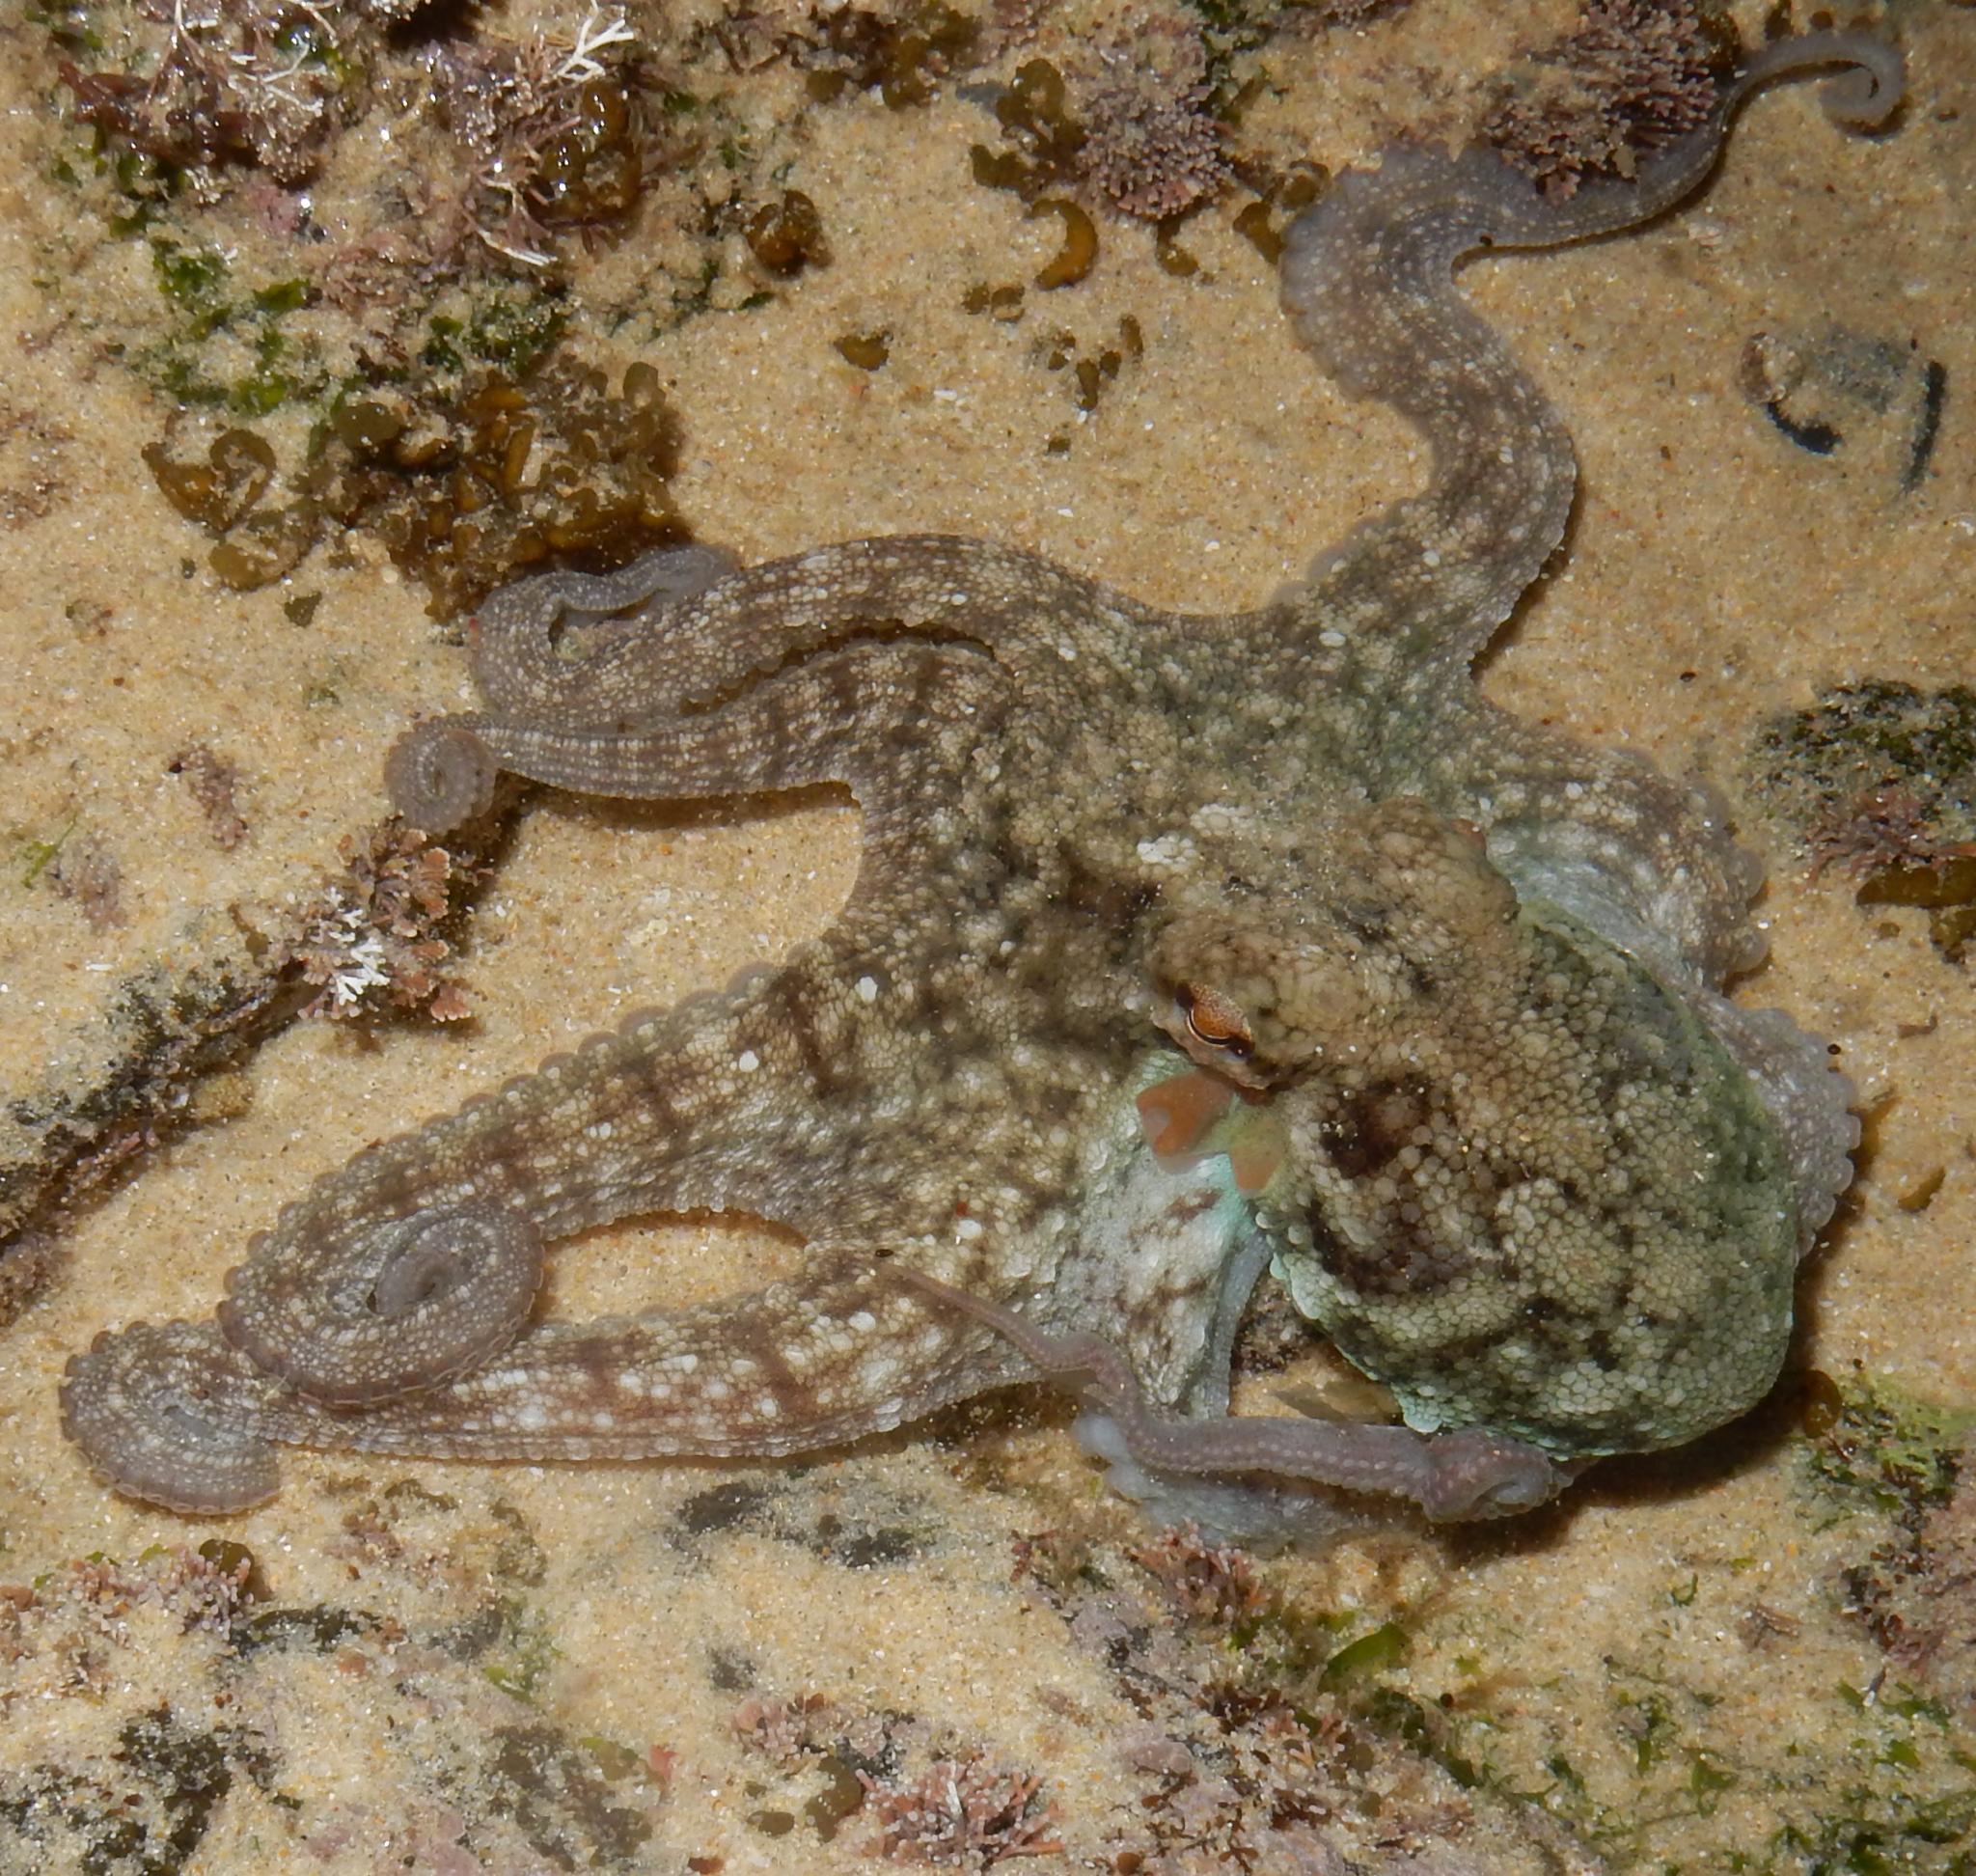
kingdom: Animalia
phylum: Mollusca
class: Cephalopoda
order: Octopoda
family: Octopodidae
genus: Octopus
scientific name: Octopus vulgaris
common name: Common octopus
